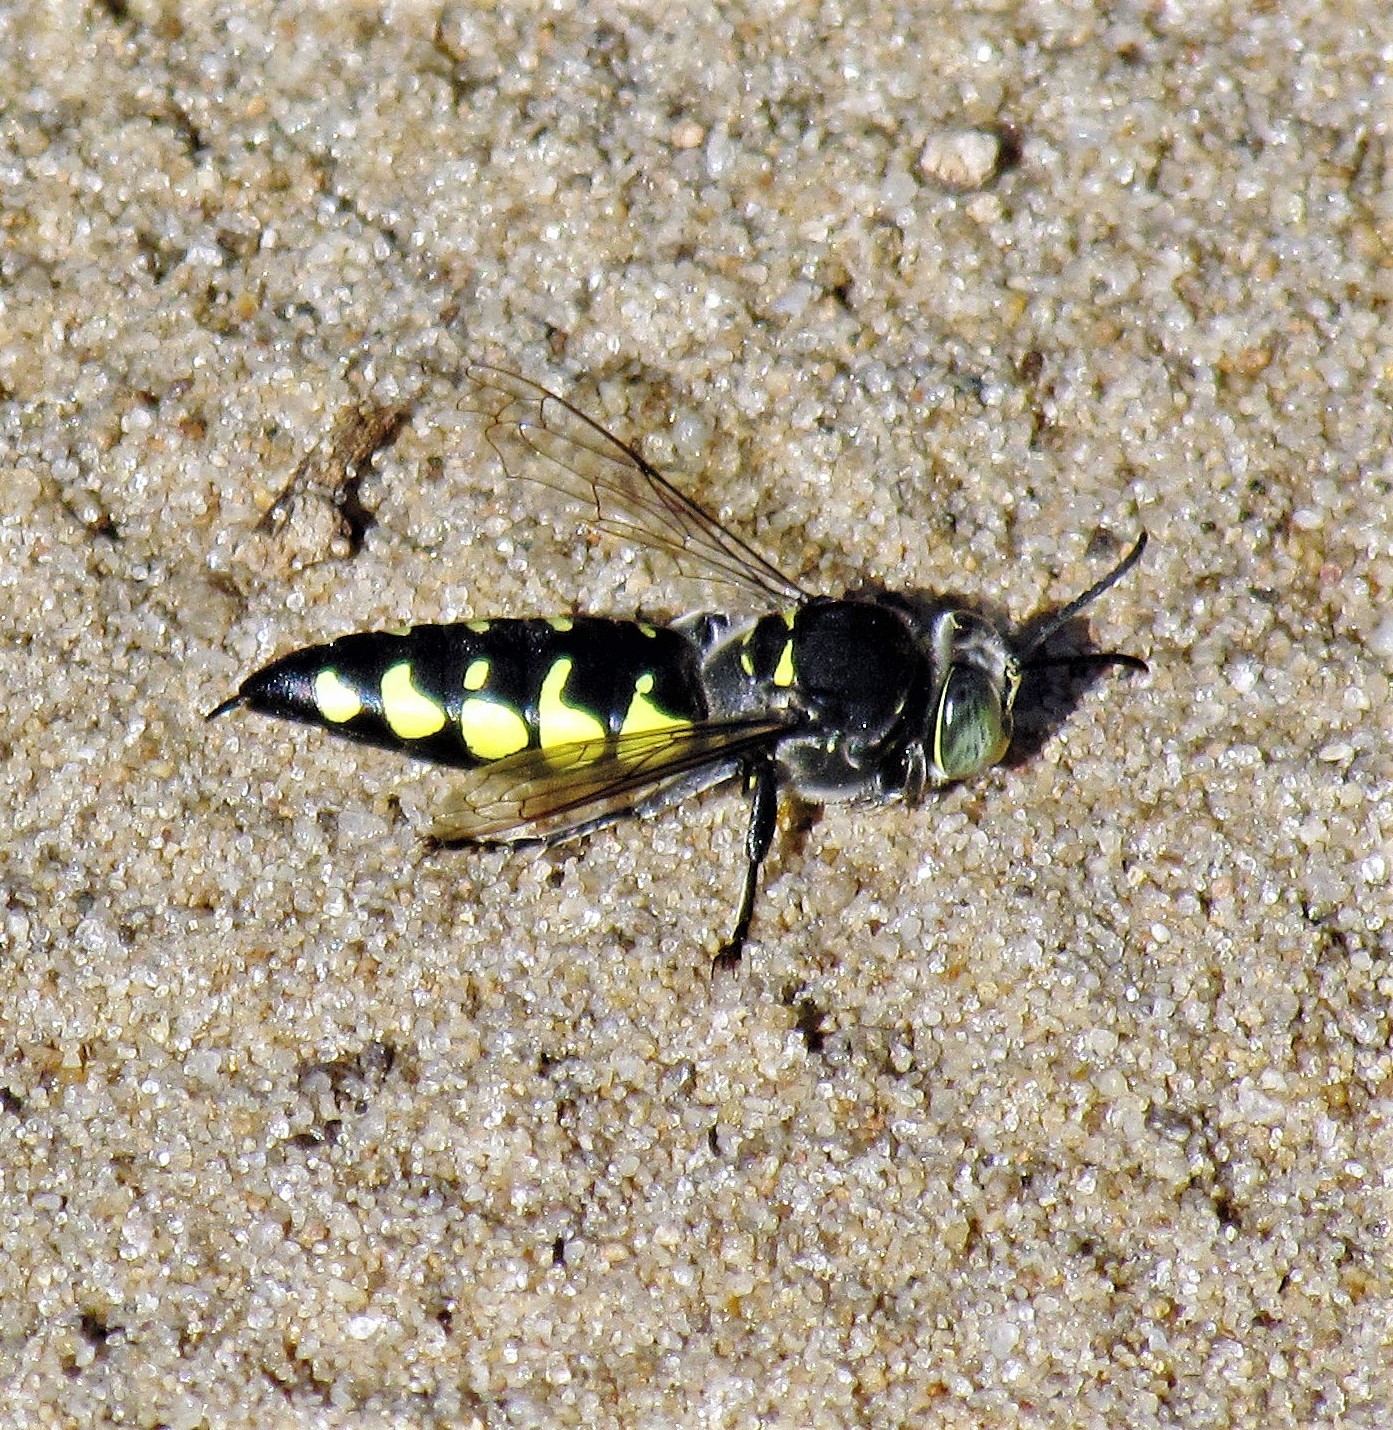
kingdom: Animalia
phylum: Arthropoda
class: Insecta
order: Hymenoptera
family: Crabronidae
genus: Stictia
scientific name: Stictia flexuosa
